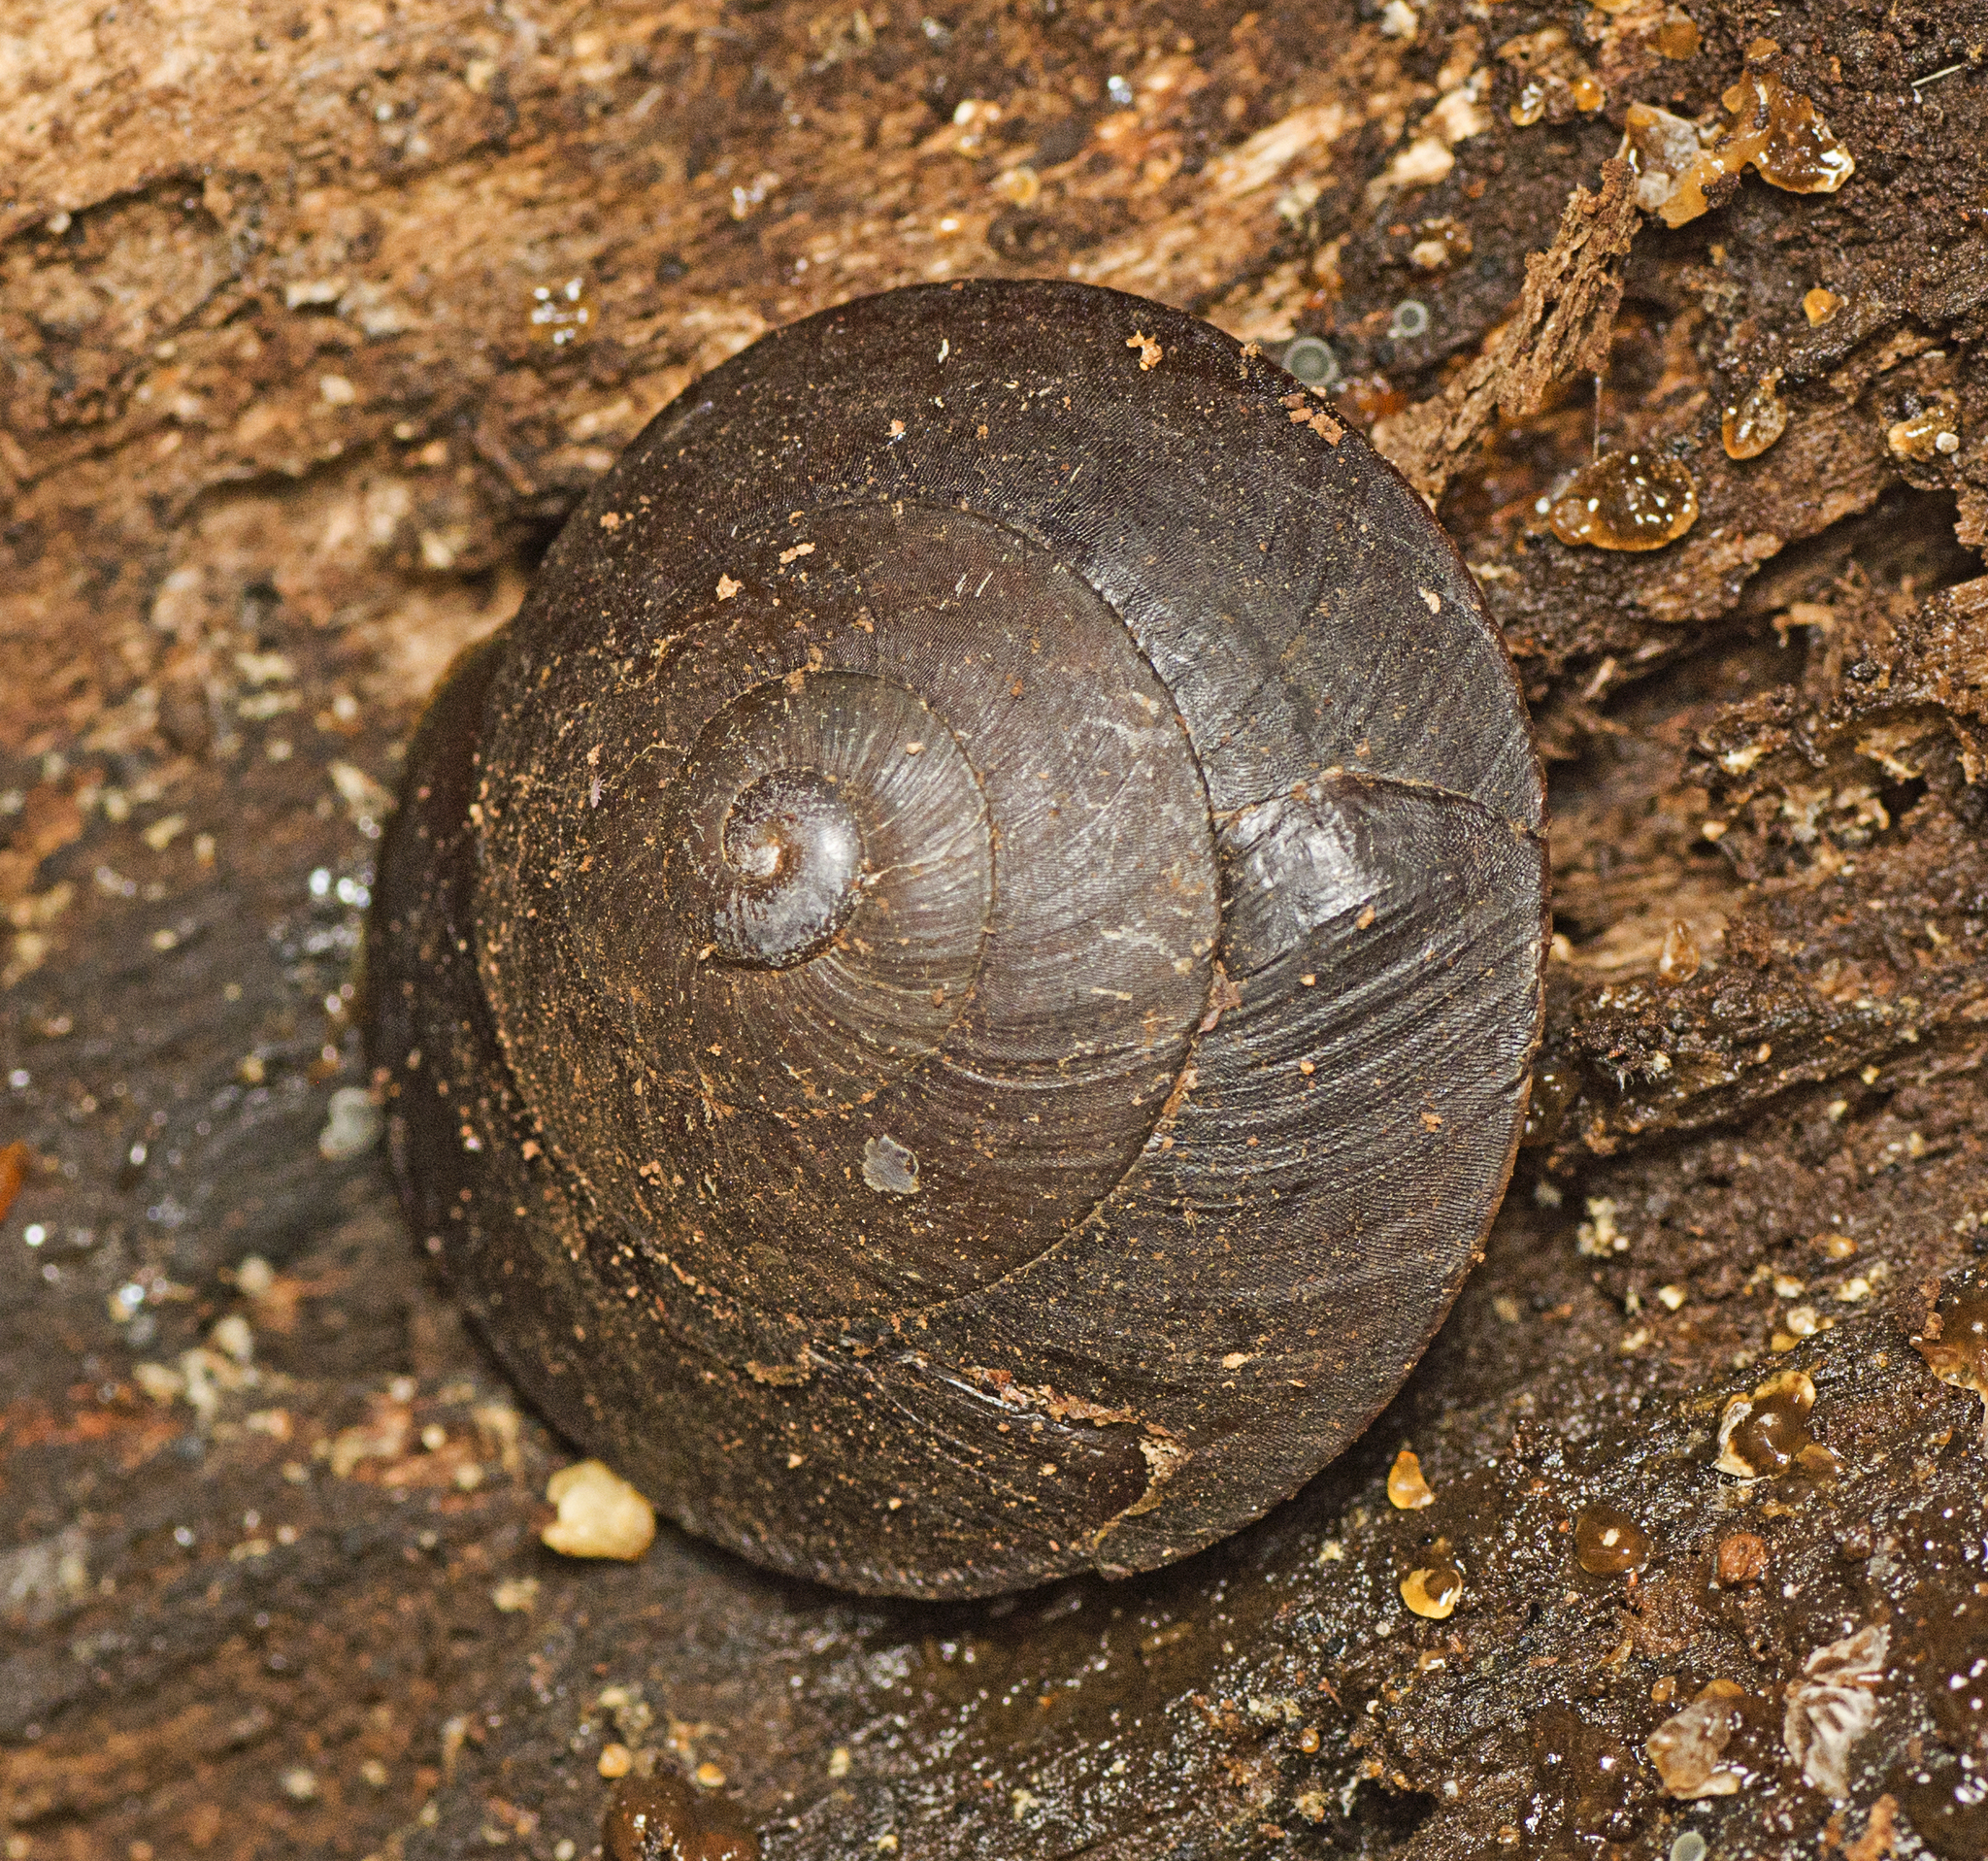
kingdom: Animalia
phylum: Mollusca
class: Gastropoda
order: Stylommatophora
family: Camaenidae
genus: Thersites
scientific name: Thersites richmondiana
